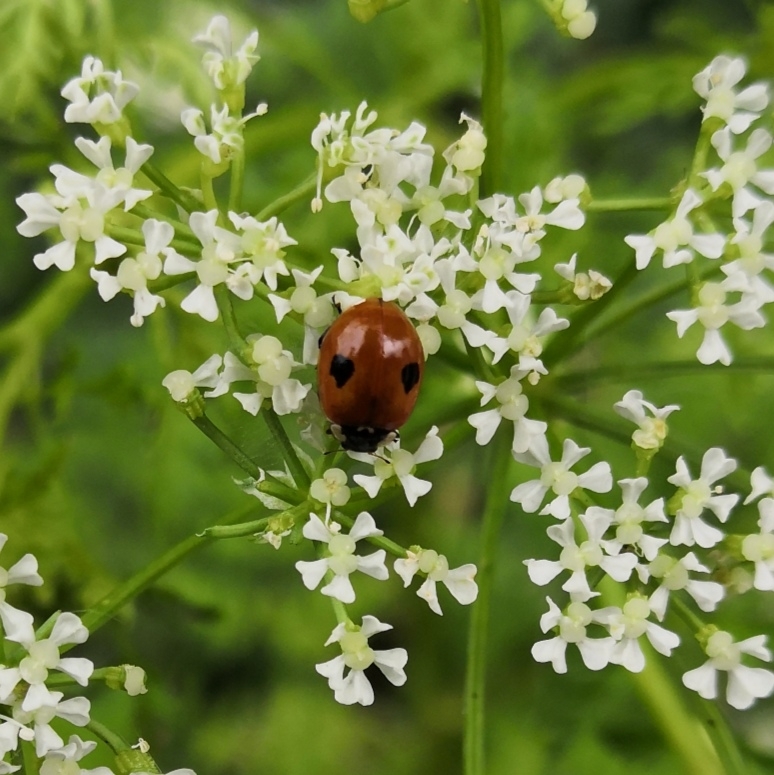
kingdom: Animalia
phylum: Arthropoda
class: Insecta
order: Coleoptera
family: Coccinellidae
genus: Adalia
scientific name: Adalia bipunctata
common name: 2-spot ladybird
